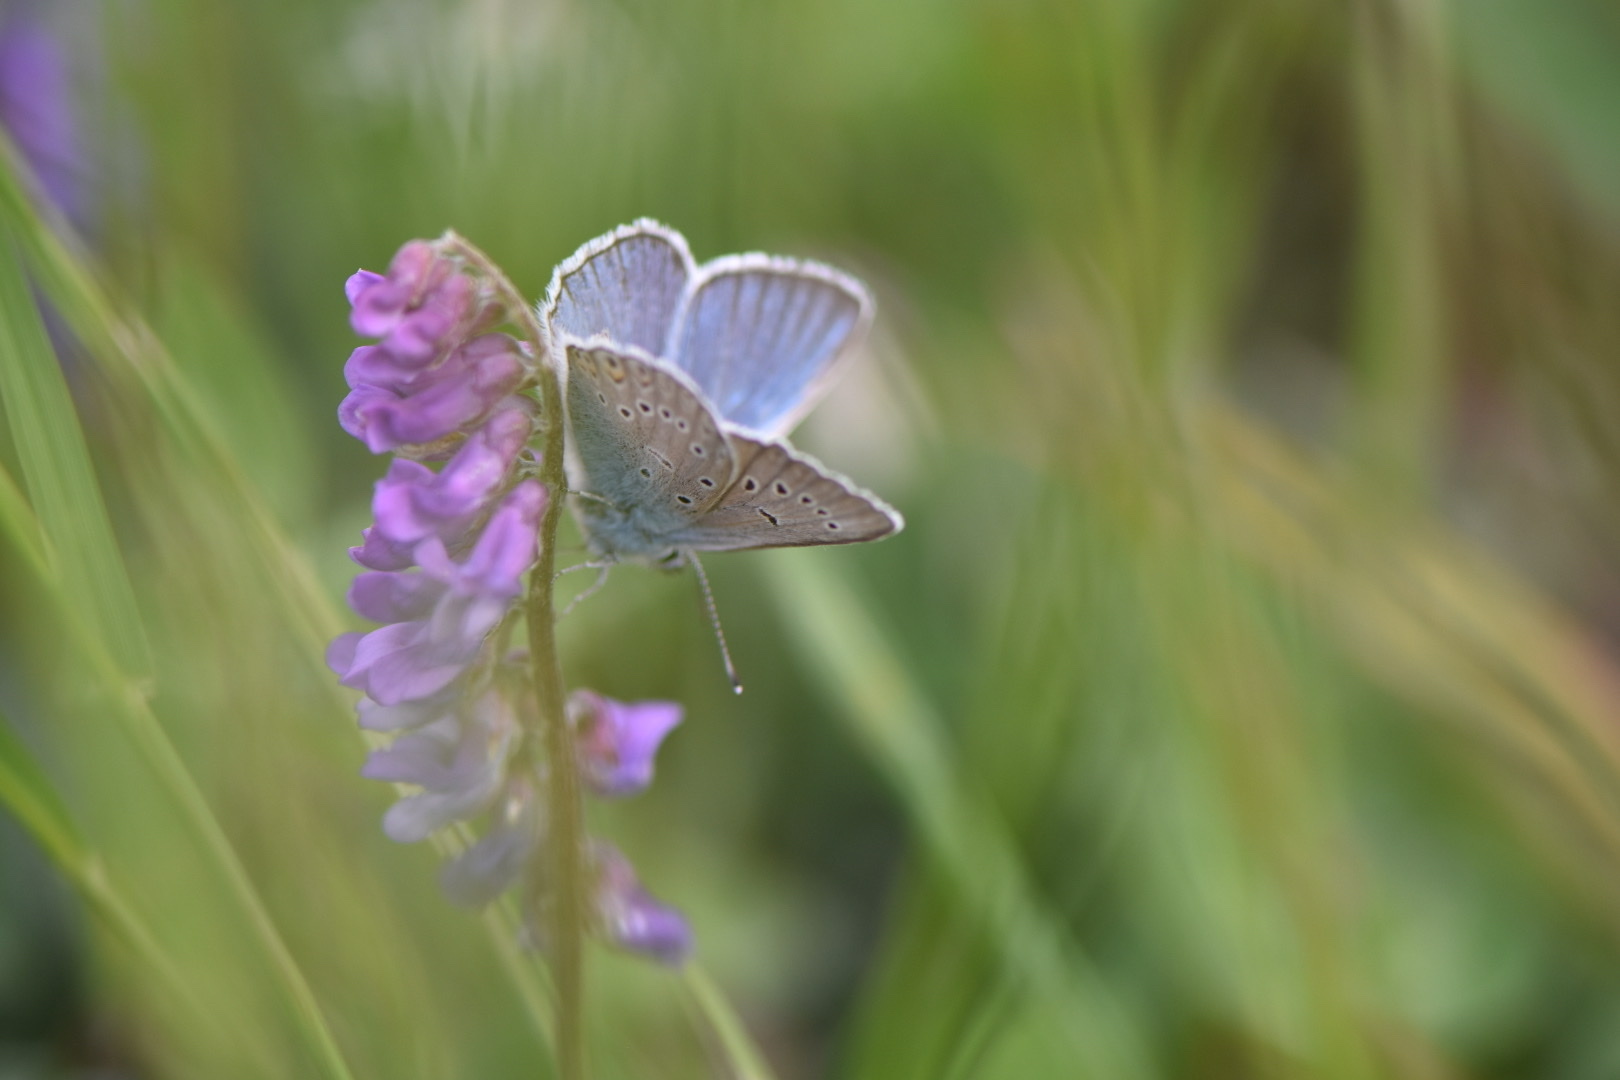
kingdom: Animalia
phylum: Arthropoda
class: Insecta
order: Lepidoptera
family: Lycaenidae
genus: Plebejus
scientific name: Plebejus amanda
